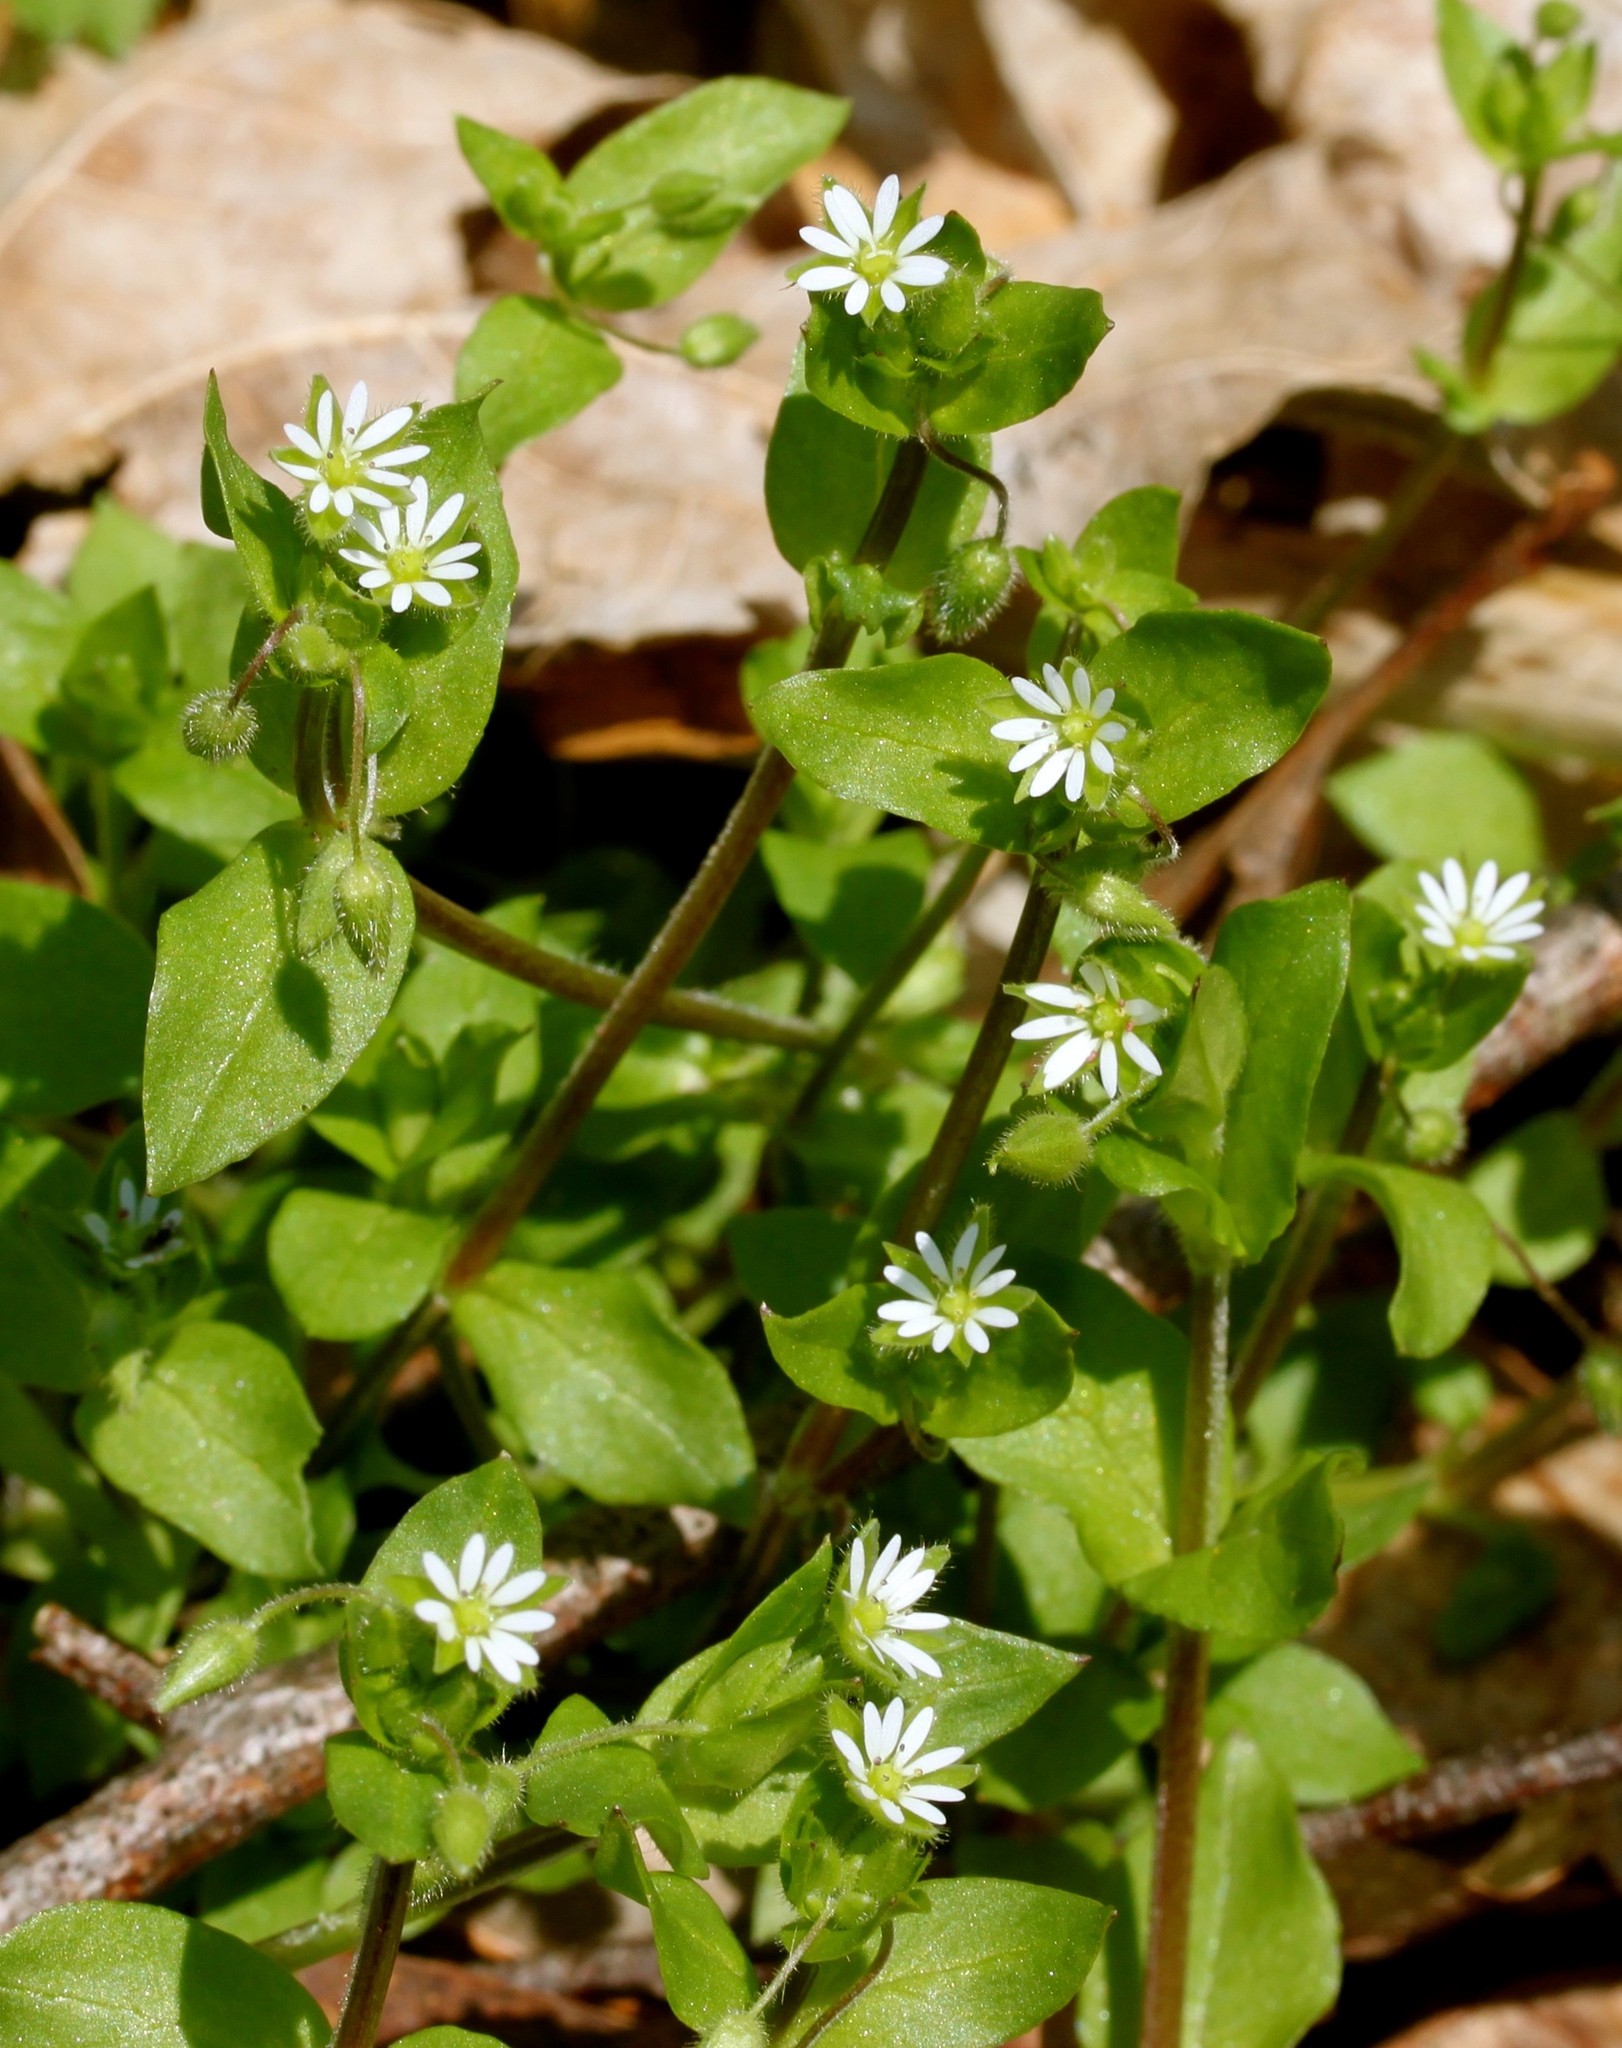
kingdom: Plantae
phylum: Tracheophyta
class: Magnoliopsida
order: Caryophyllales
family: Caryophyllaceae
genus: Stellaria
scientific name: Stellaria media
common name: Common chickweed
